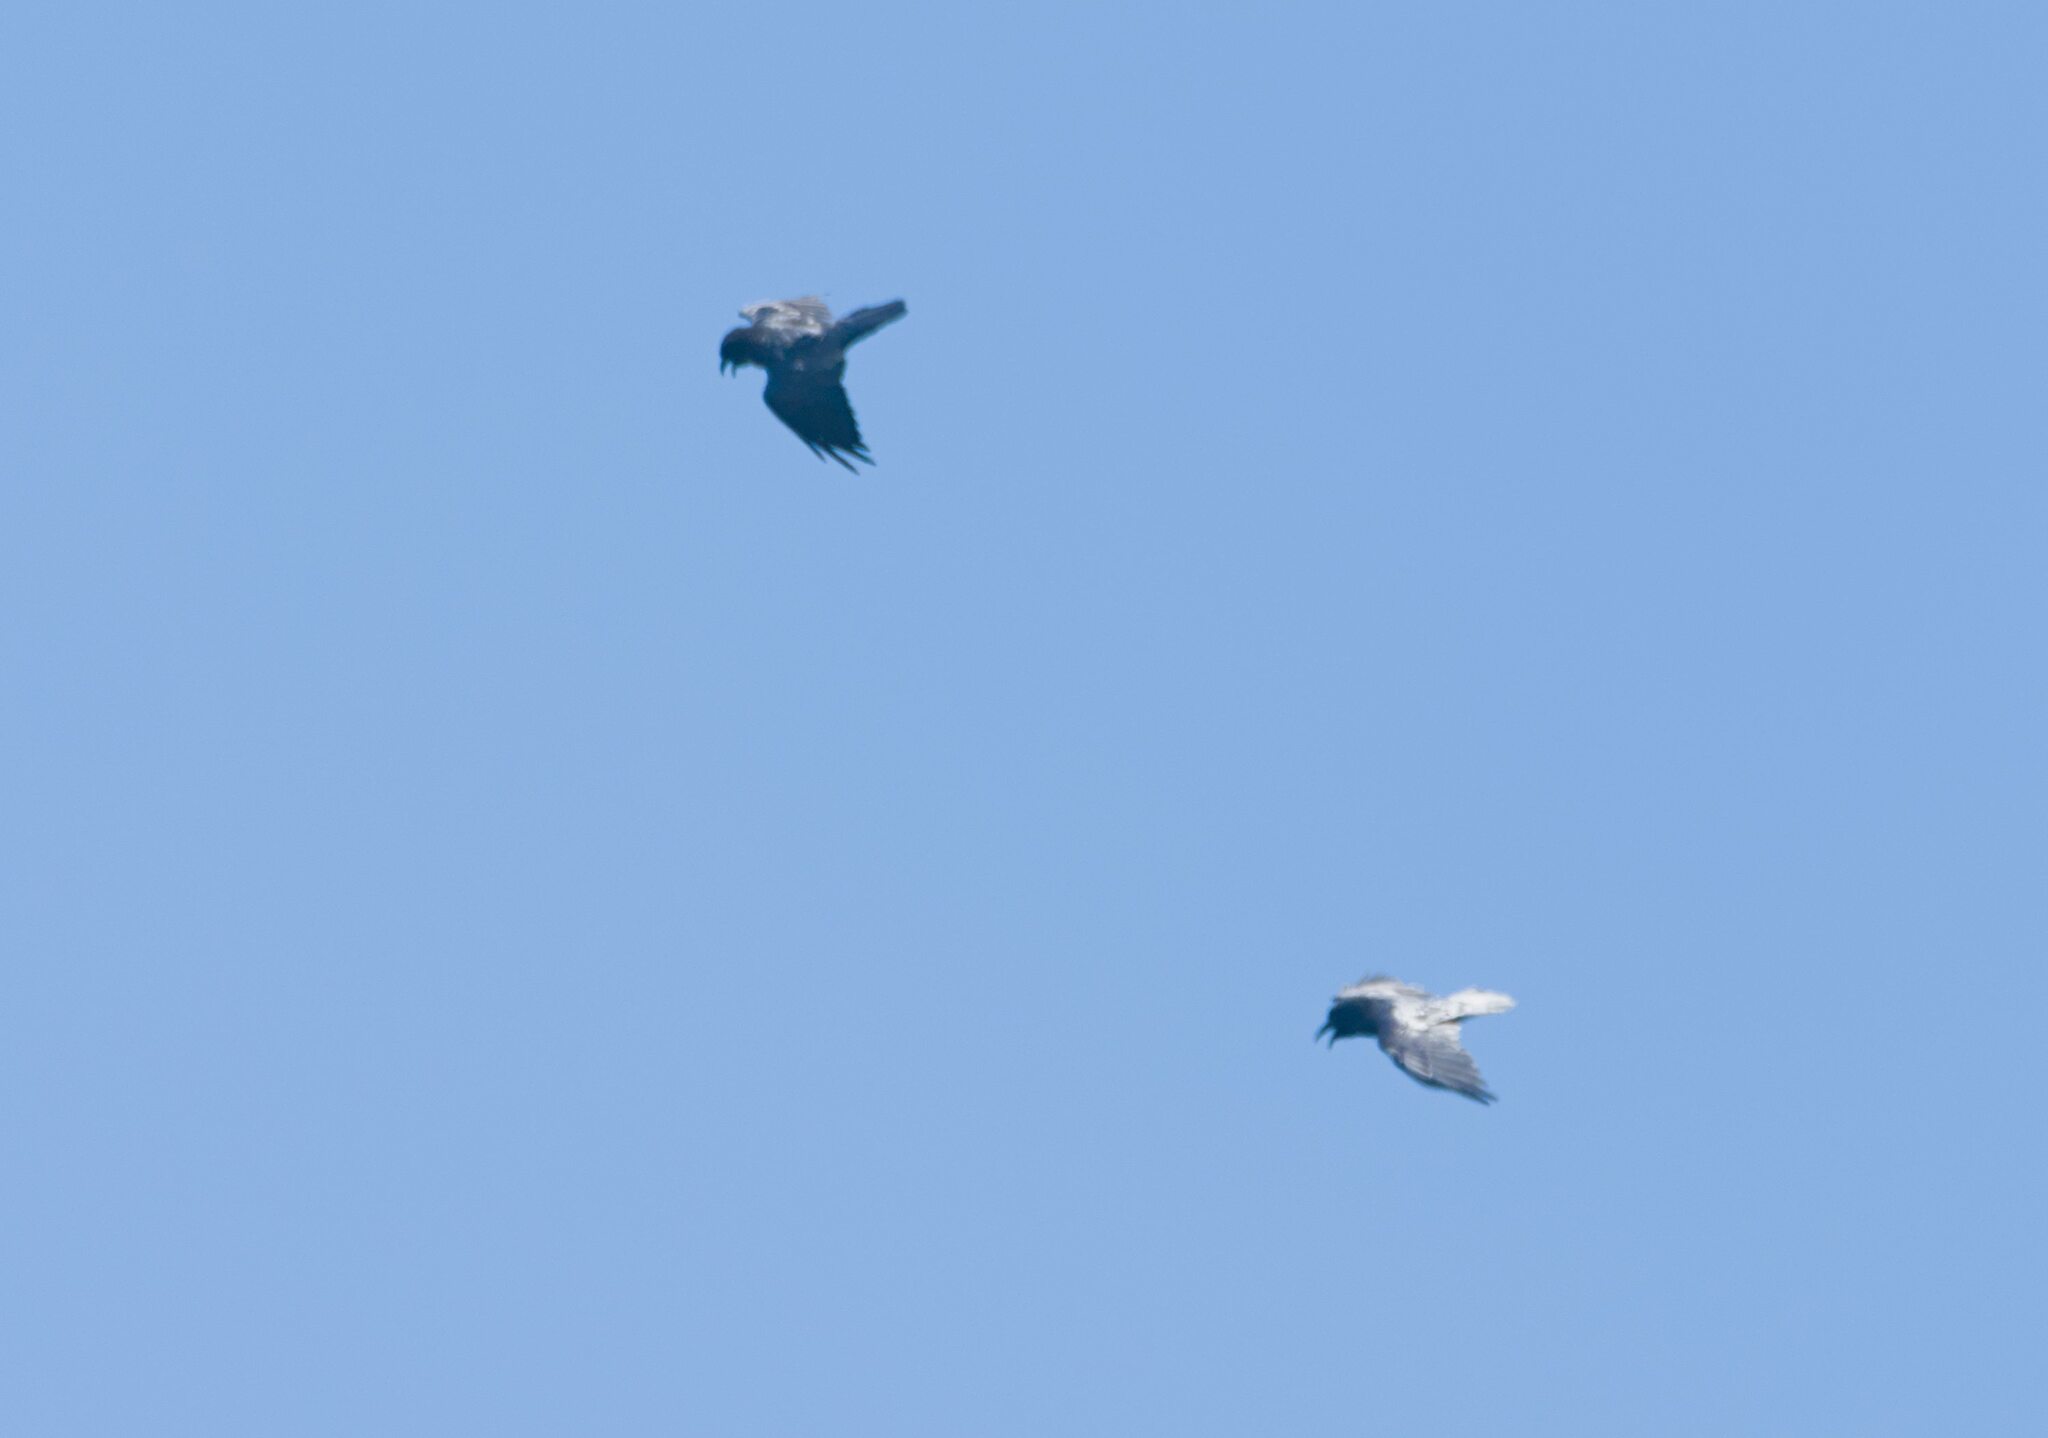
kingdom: Animalia
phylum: Chordata
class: Aves
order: Passeriformes
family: Corvidae
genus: Corvus
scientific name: Corvus corax
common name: Common raven
